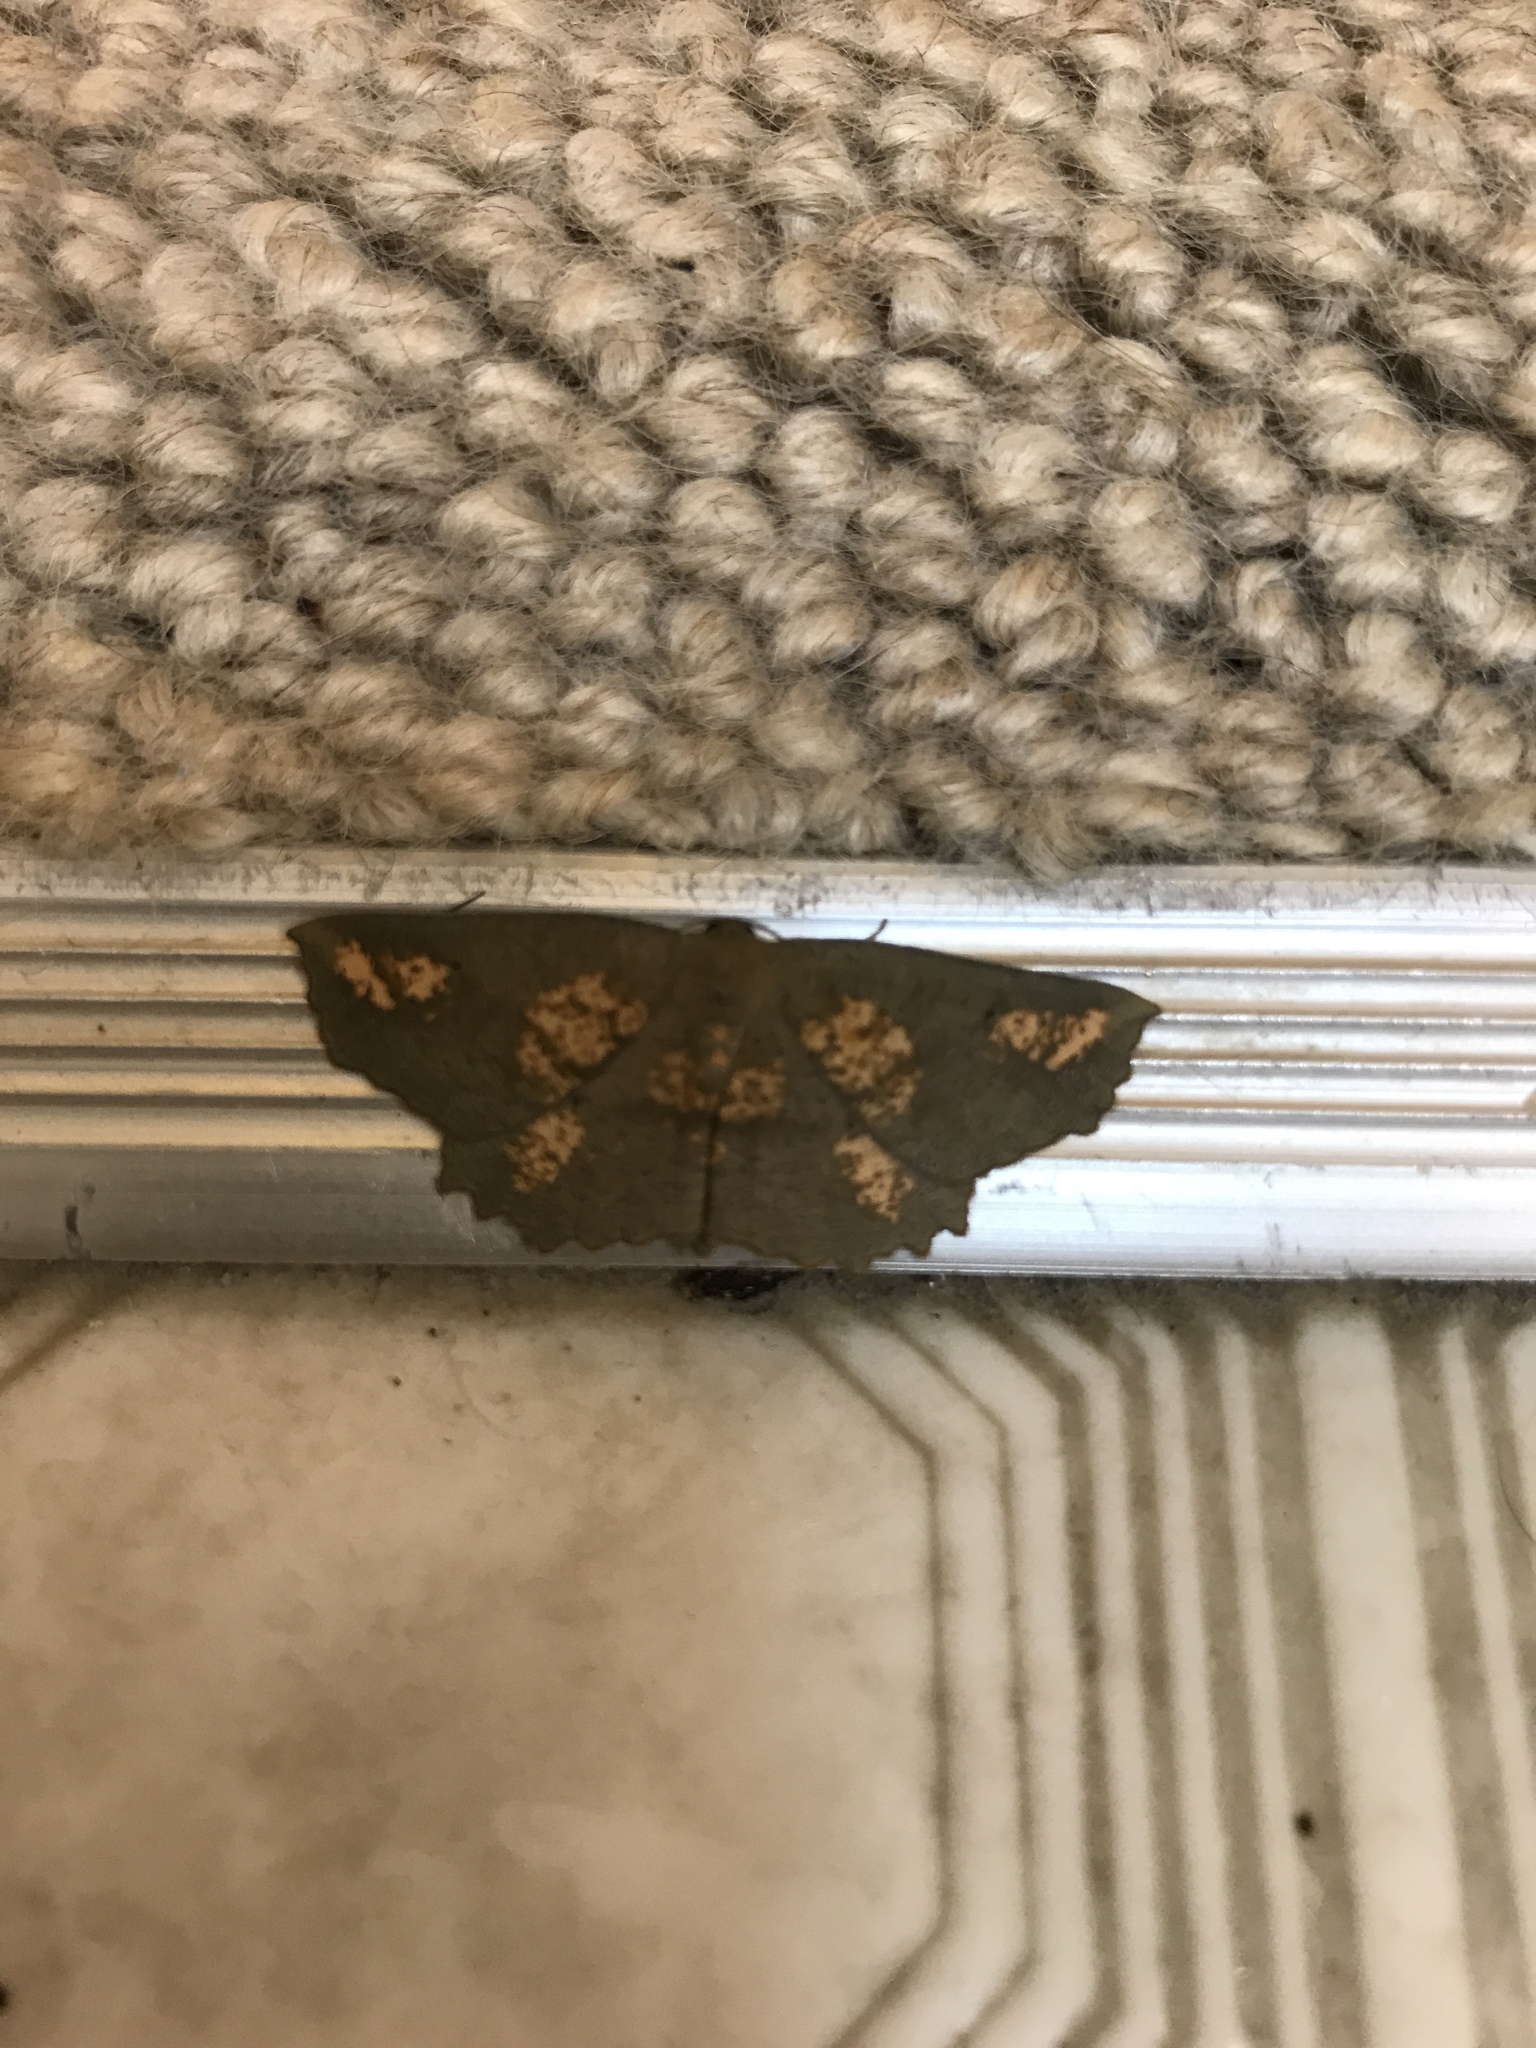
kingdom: Animalia
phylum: Arthropoda
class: Insecta
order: Lepidoptera
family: Geometridae
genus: Xyridacma
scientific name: Xyridacma ustaria
